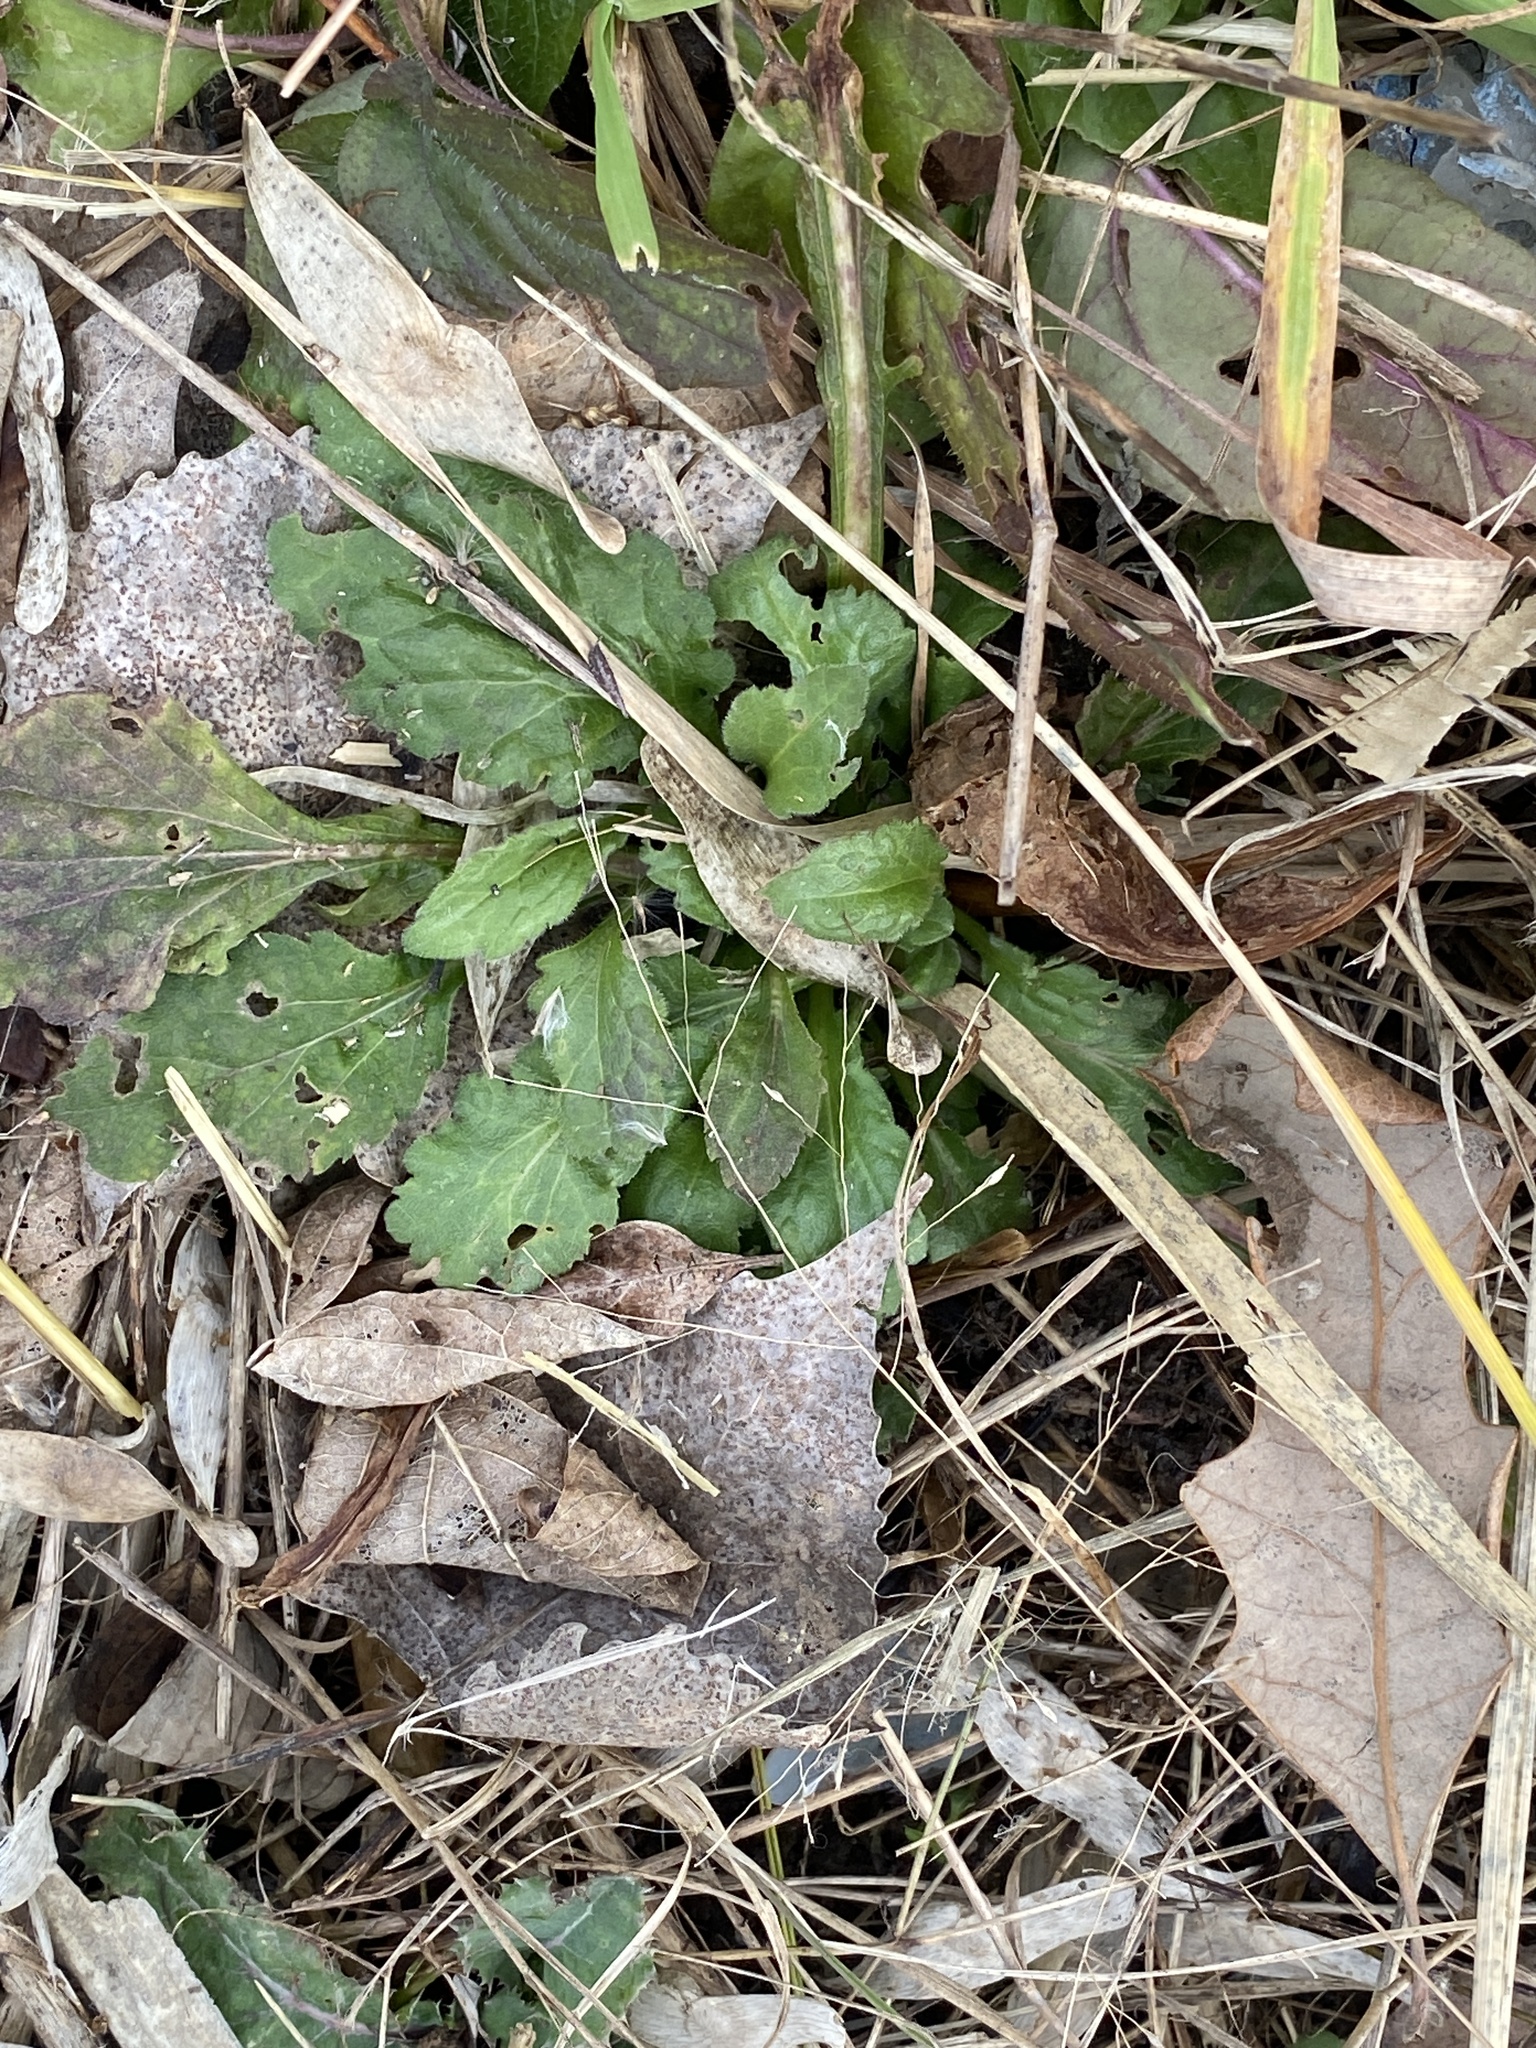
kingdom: Plantae
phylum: Tracheophyta
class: Magnoliopsida
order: Asterales
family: Asteraceae
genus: Erigeron
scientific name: Erigeron annuus
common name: Tall fleabane
